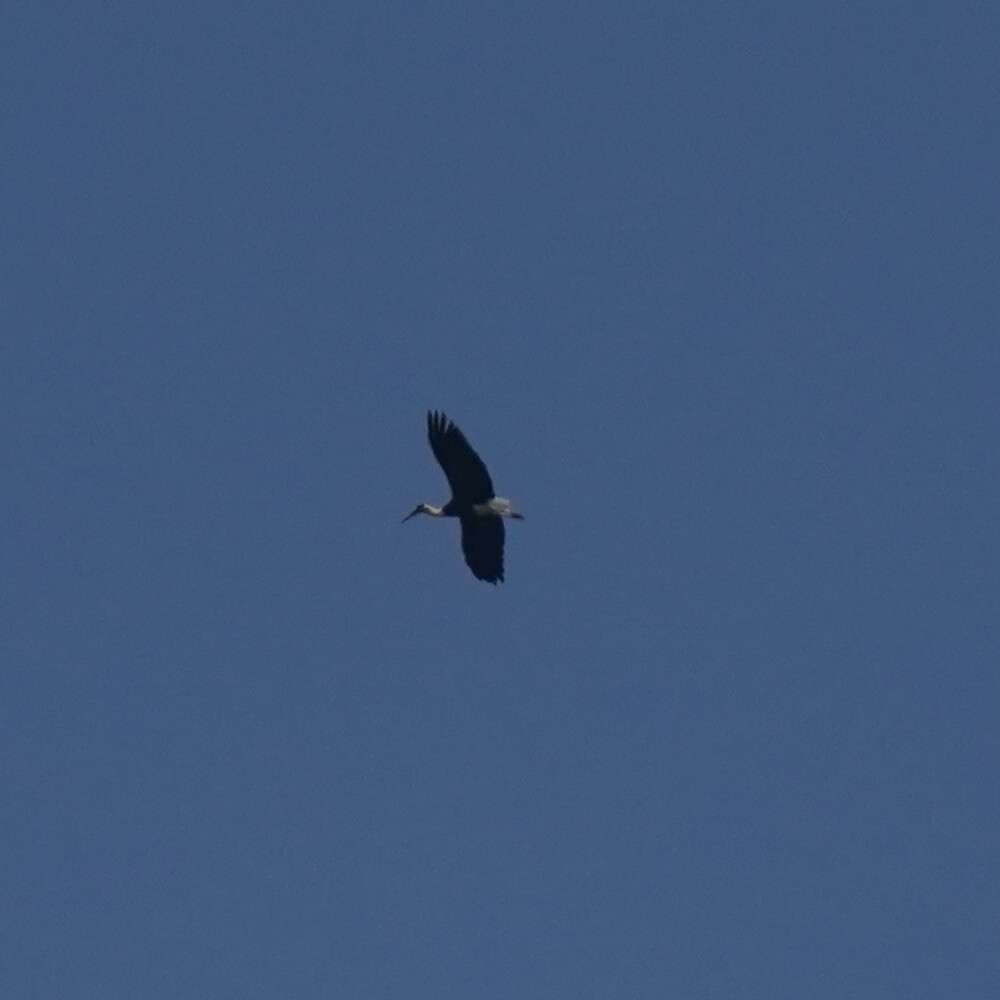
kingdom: Animalia
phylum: Chordata
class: Aves
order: Ciconiiformes
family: Ciconiidae
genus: Ciconia
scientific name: Ciconia episcopus
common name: Woolly-necked stork
